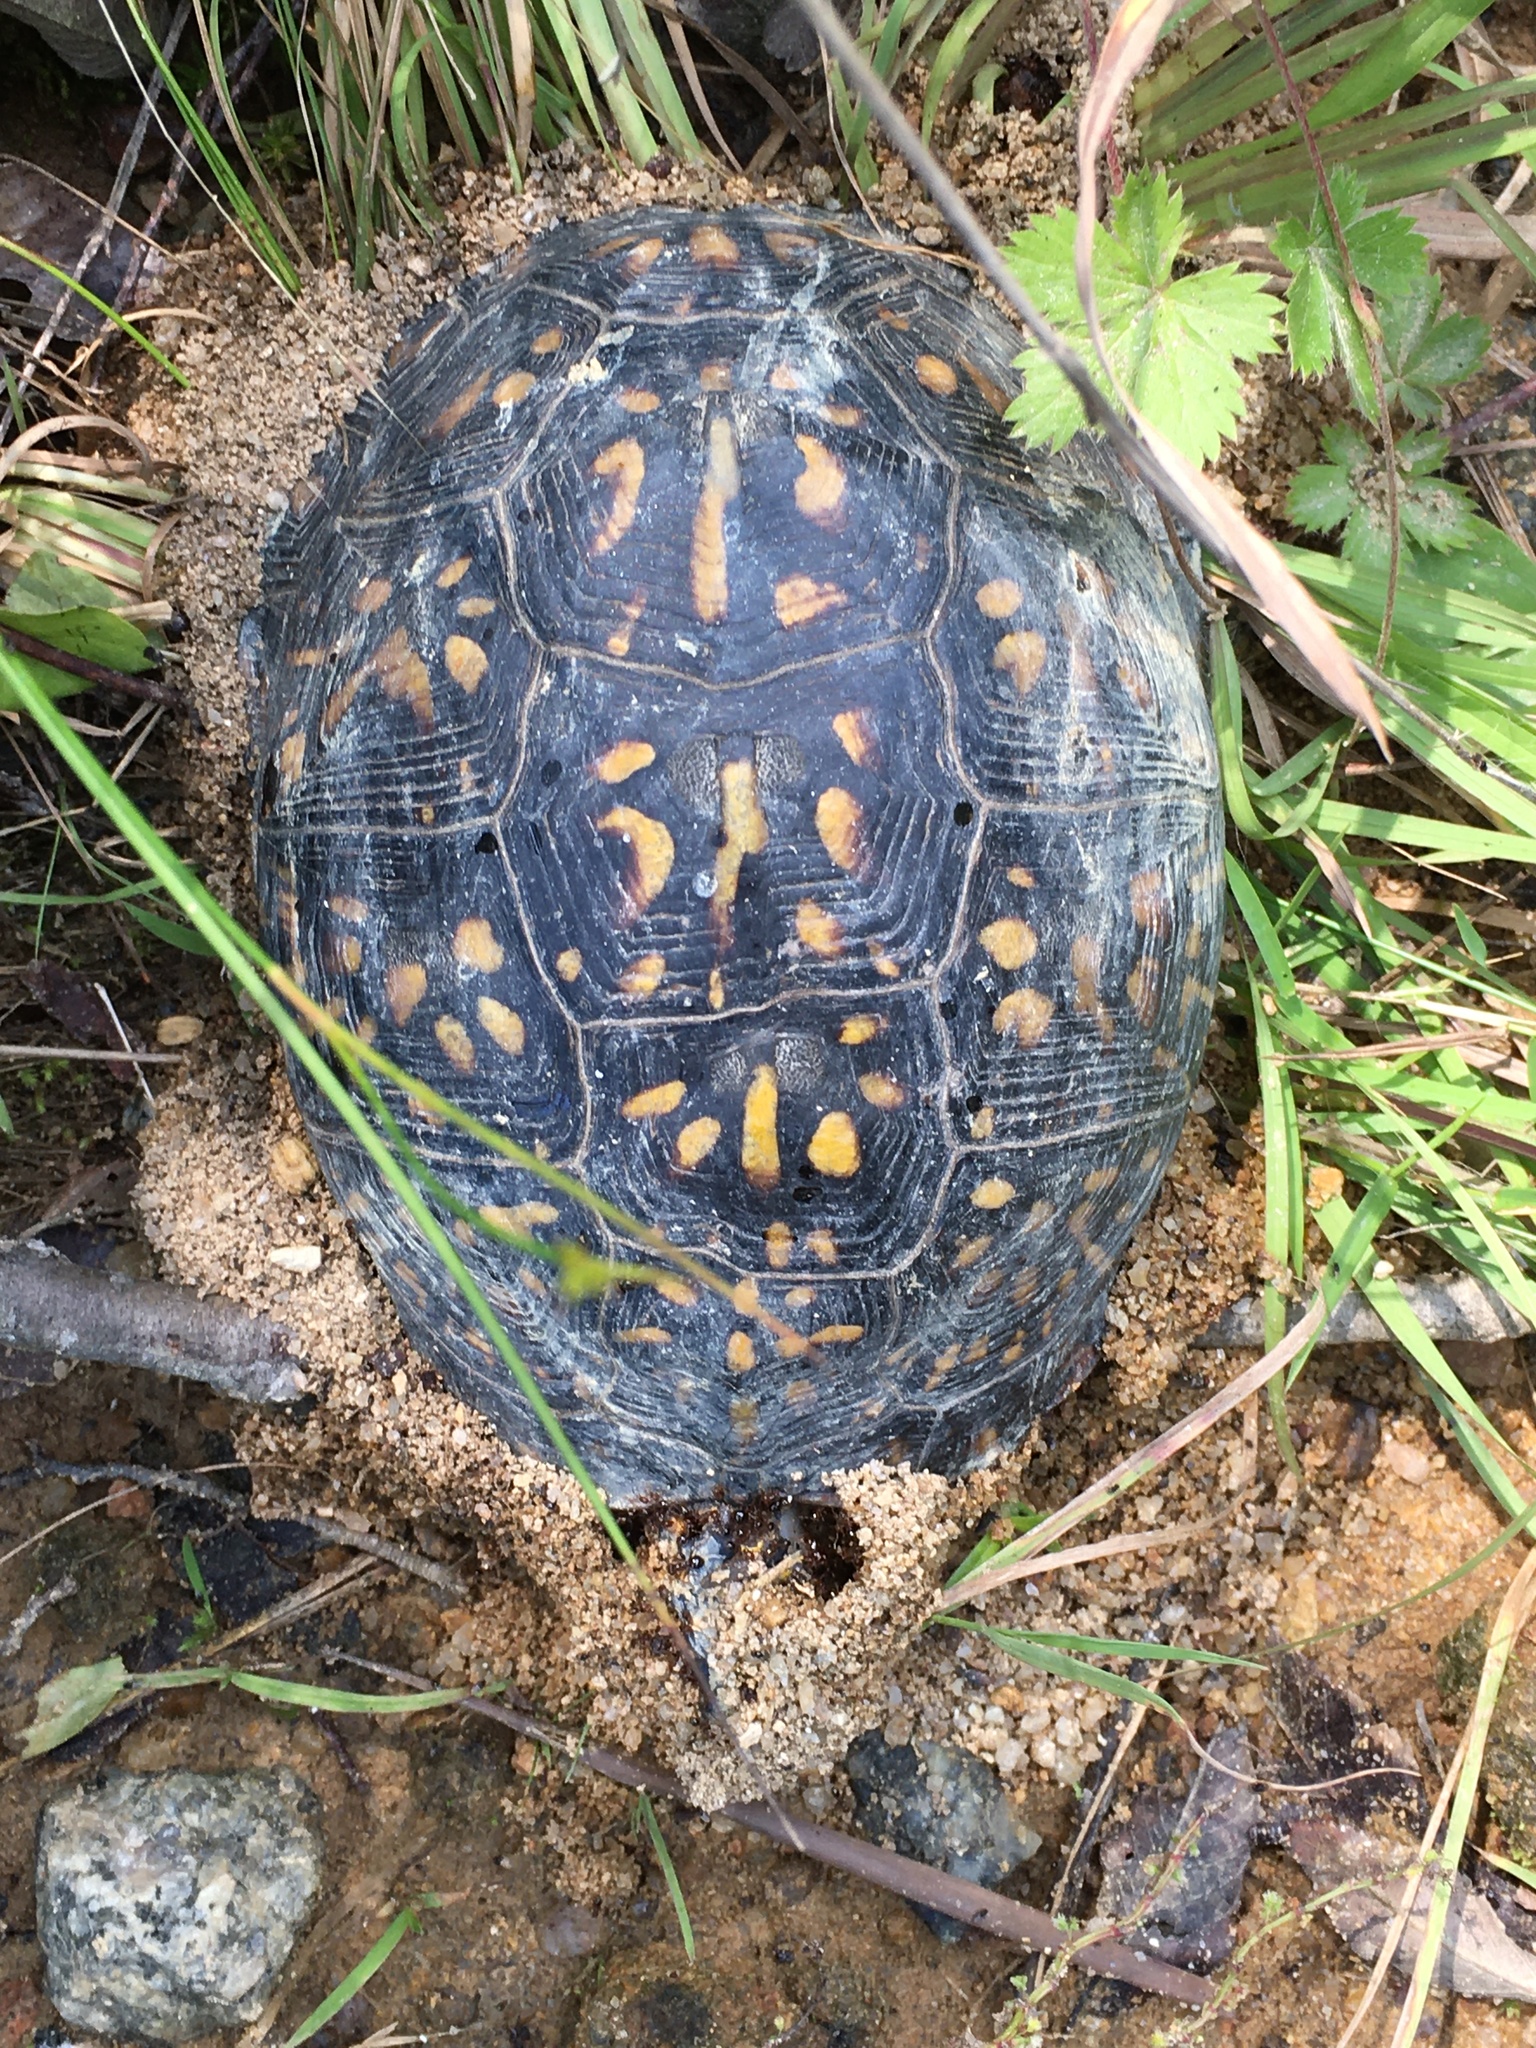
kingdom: Animalia
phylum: Chordata
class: Testudines
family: Emydidae
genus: Terrapene
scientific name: Terrapene carolina
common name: Common box turtle
